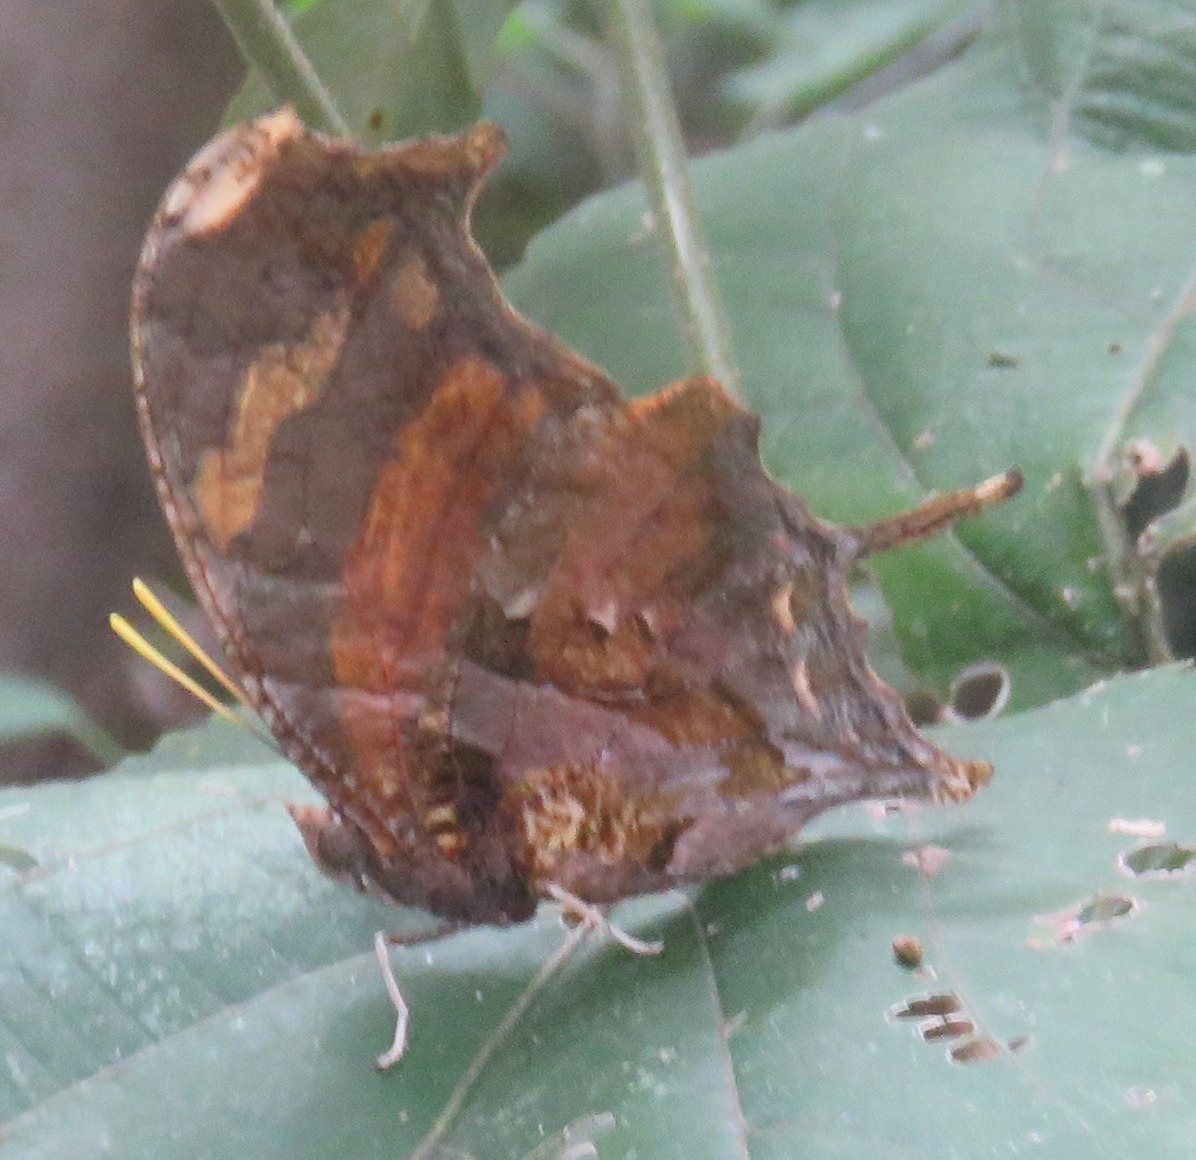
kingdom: Animalia
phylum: Arthropoda
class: Insecta
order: Lepidoptera
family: Nymphalidae
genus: Consul
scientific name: Consul fabius
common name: Tiger leafwing
